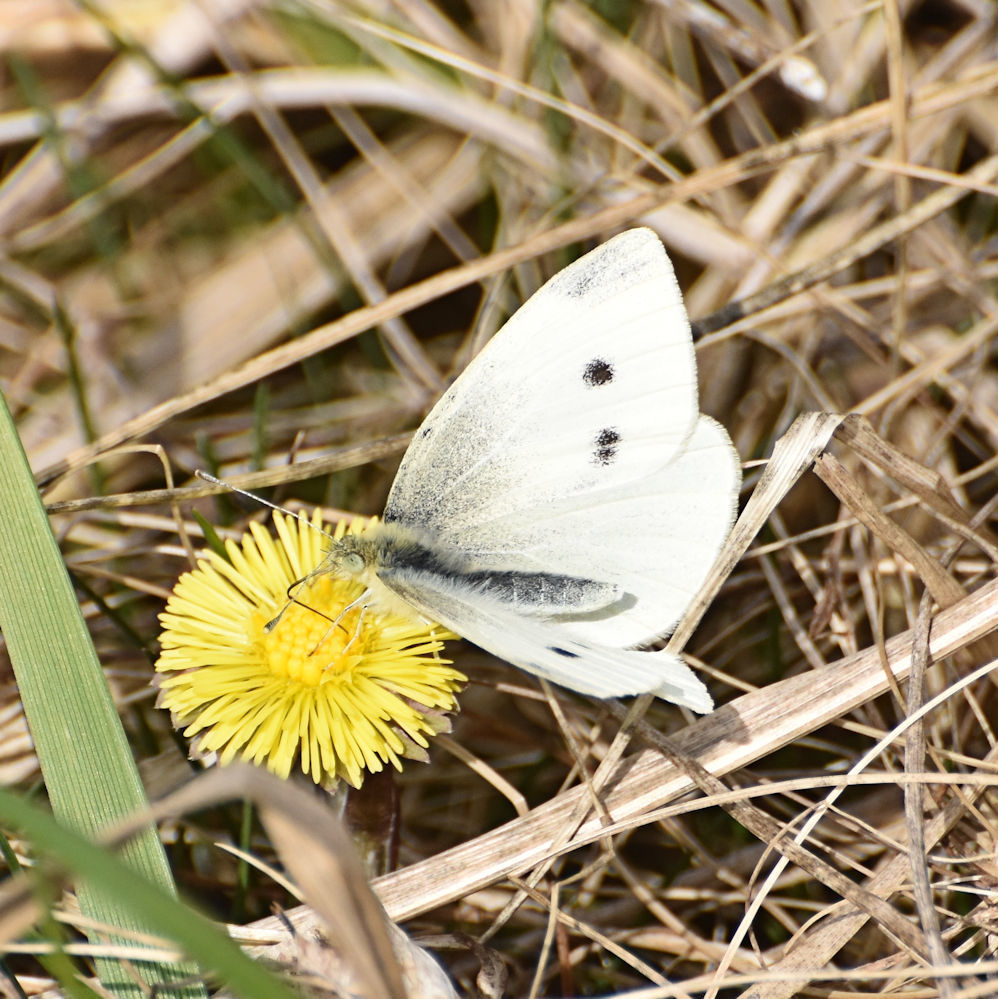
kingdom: Animalia
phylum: Arthropoda
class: Insecta
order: Lepidoptera
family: Pieridae
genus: Pieris
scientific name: Pieris rapae
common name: Small white
